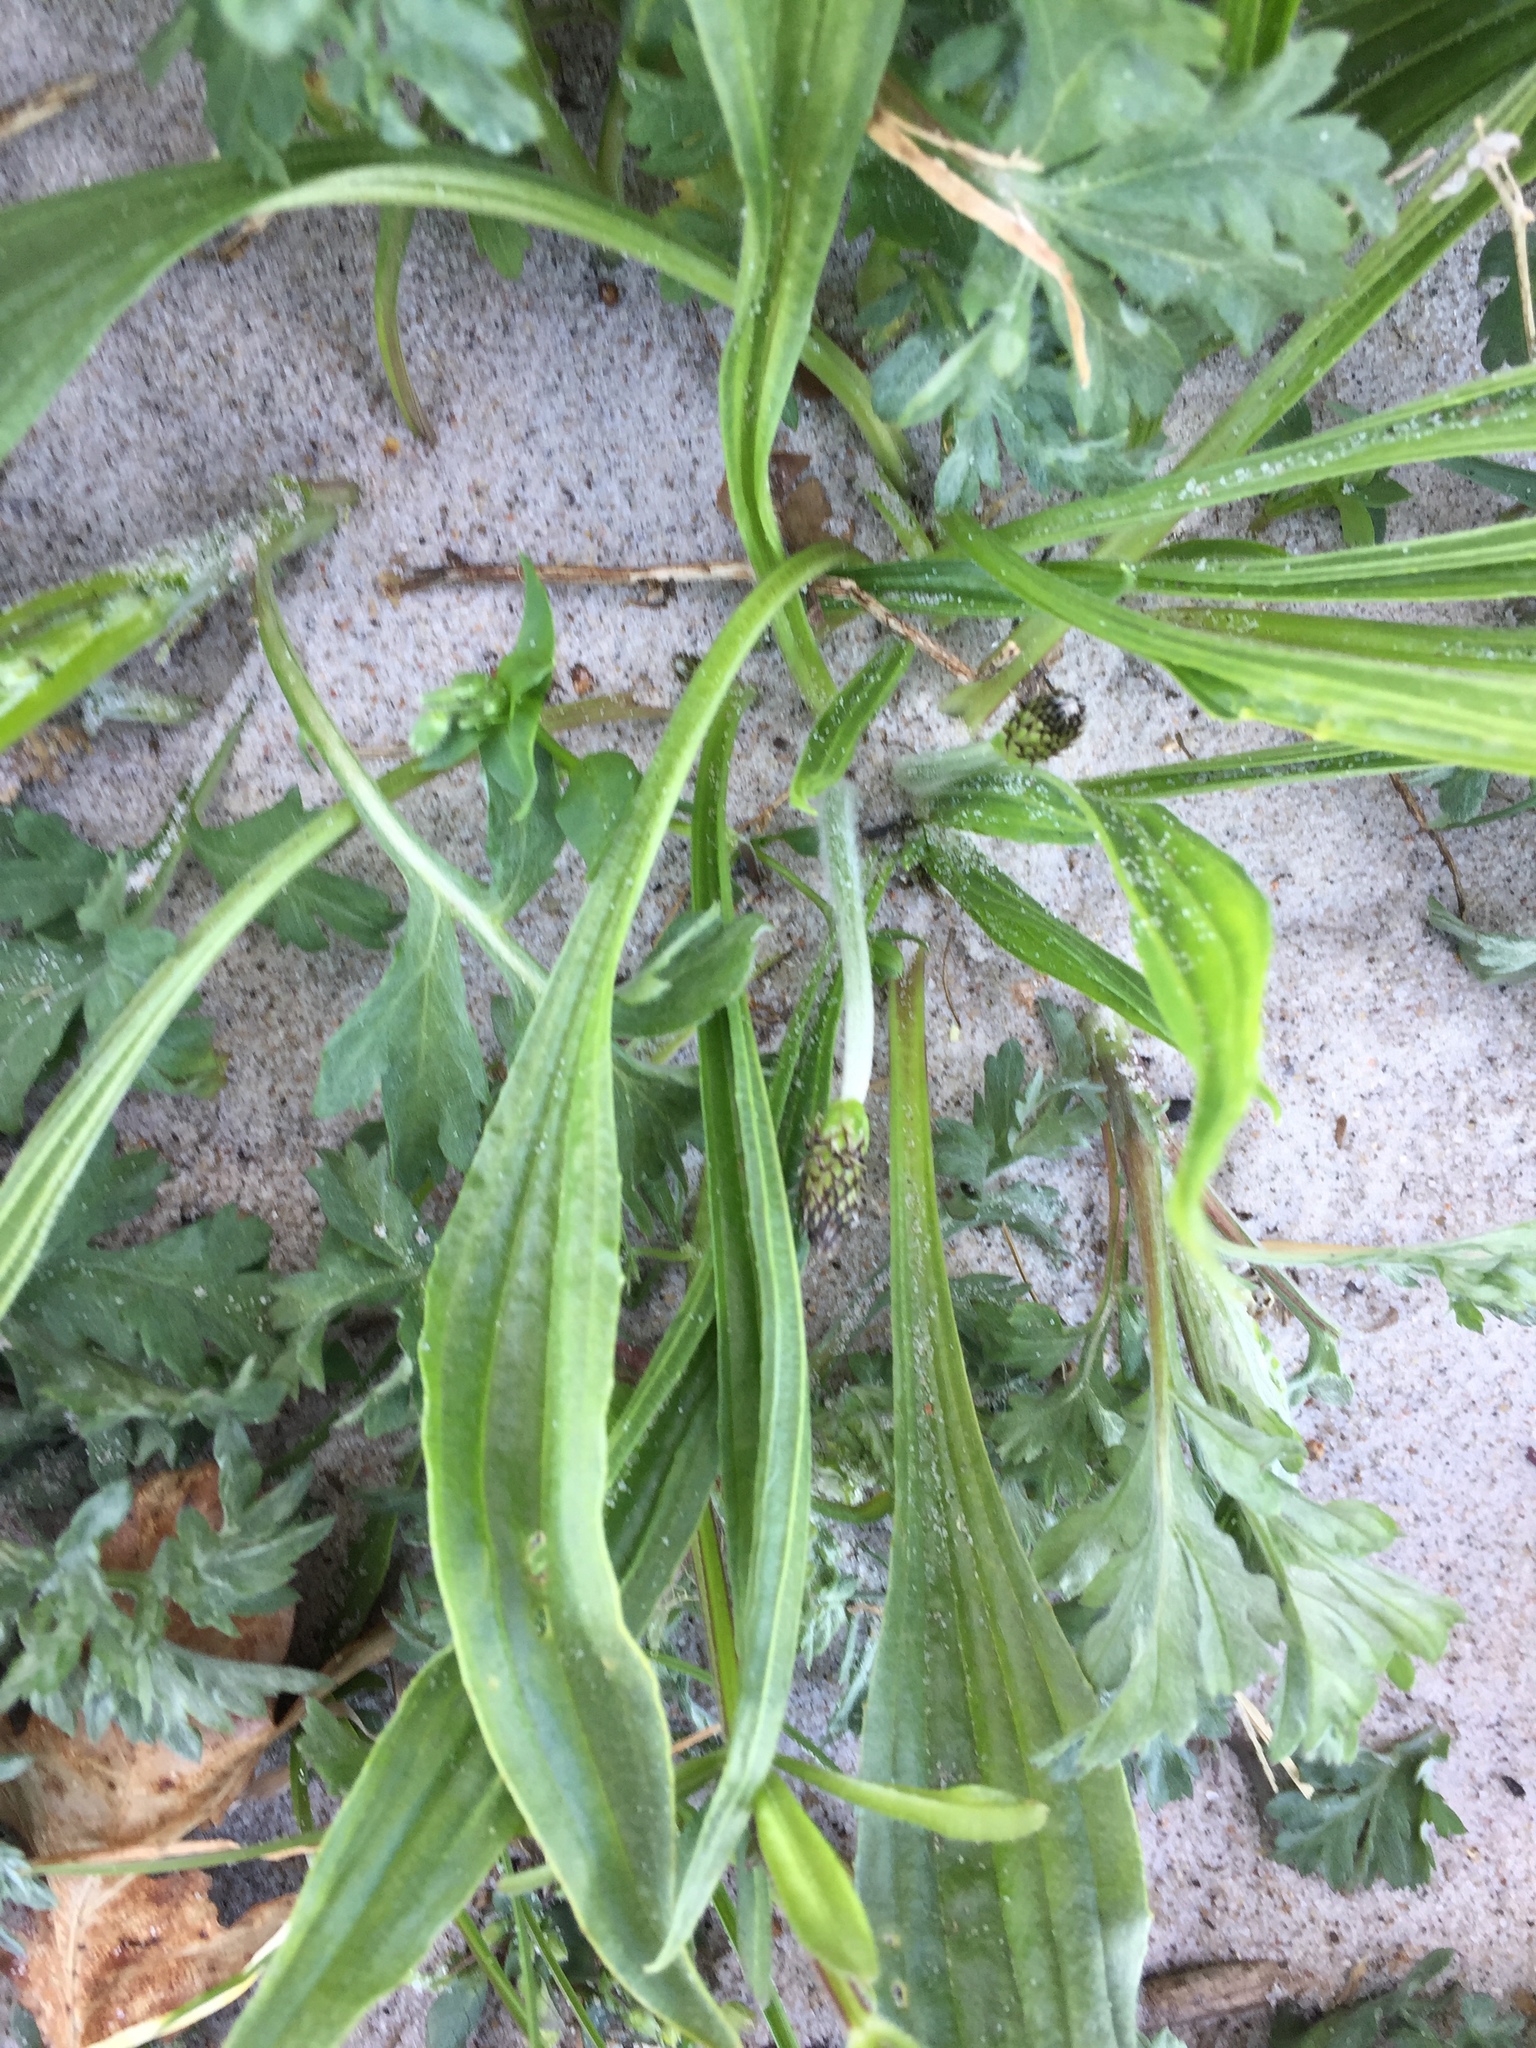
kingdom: Plantae
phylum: Tracheophyta
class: Magnoliopsida
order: Lamiales
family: Plantaginaceae
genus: Plantago
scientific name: Plantago lanceolata
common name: Ribwort plantain
